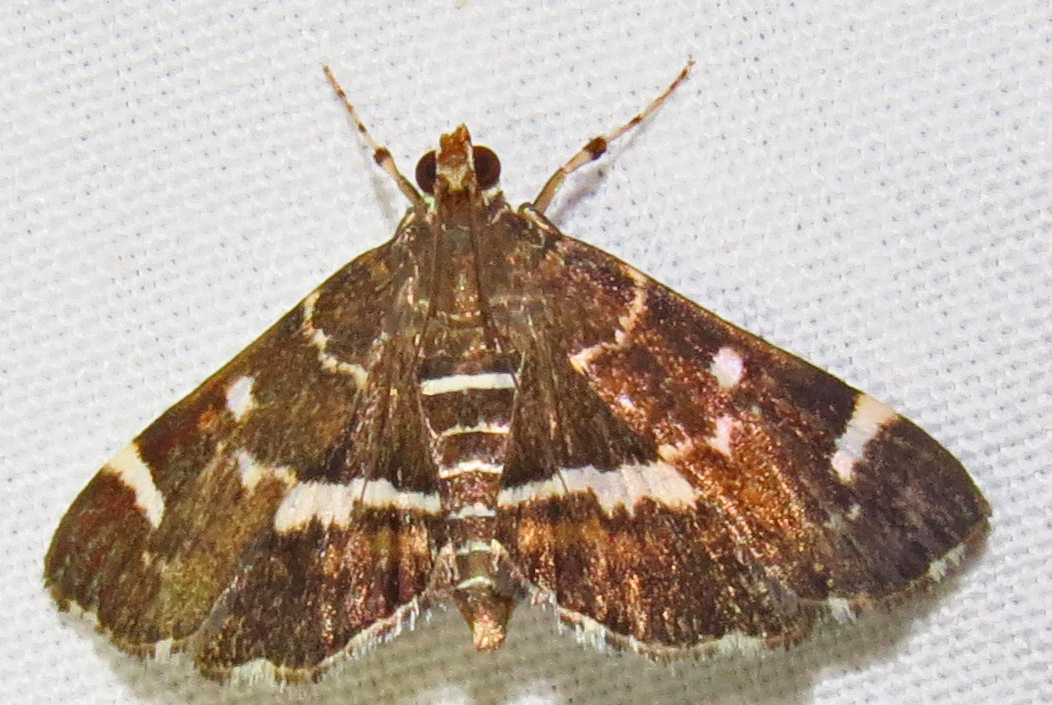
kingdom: Animalia
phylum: Arthropoda
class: Insecta
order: Lepidoptera
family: Crambidae
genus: Hymenia
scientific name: Hymenia perspectalis
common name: Spotted beet webworm
